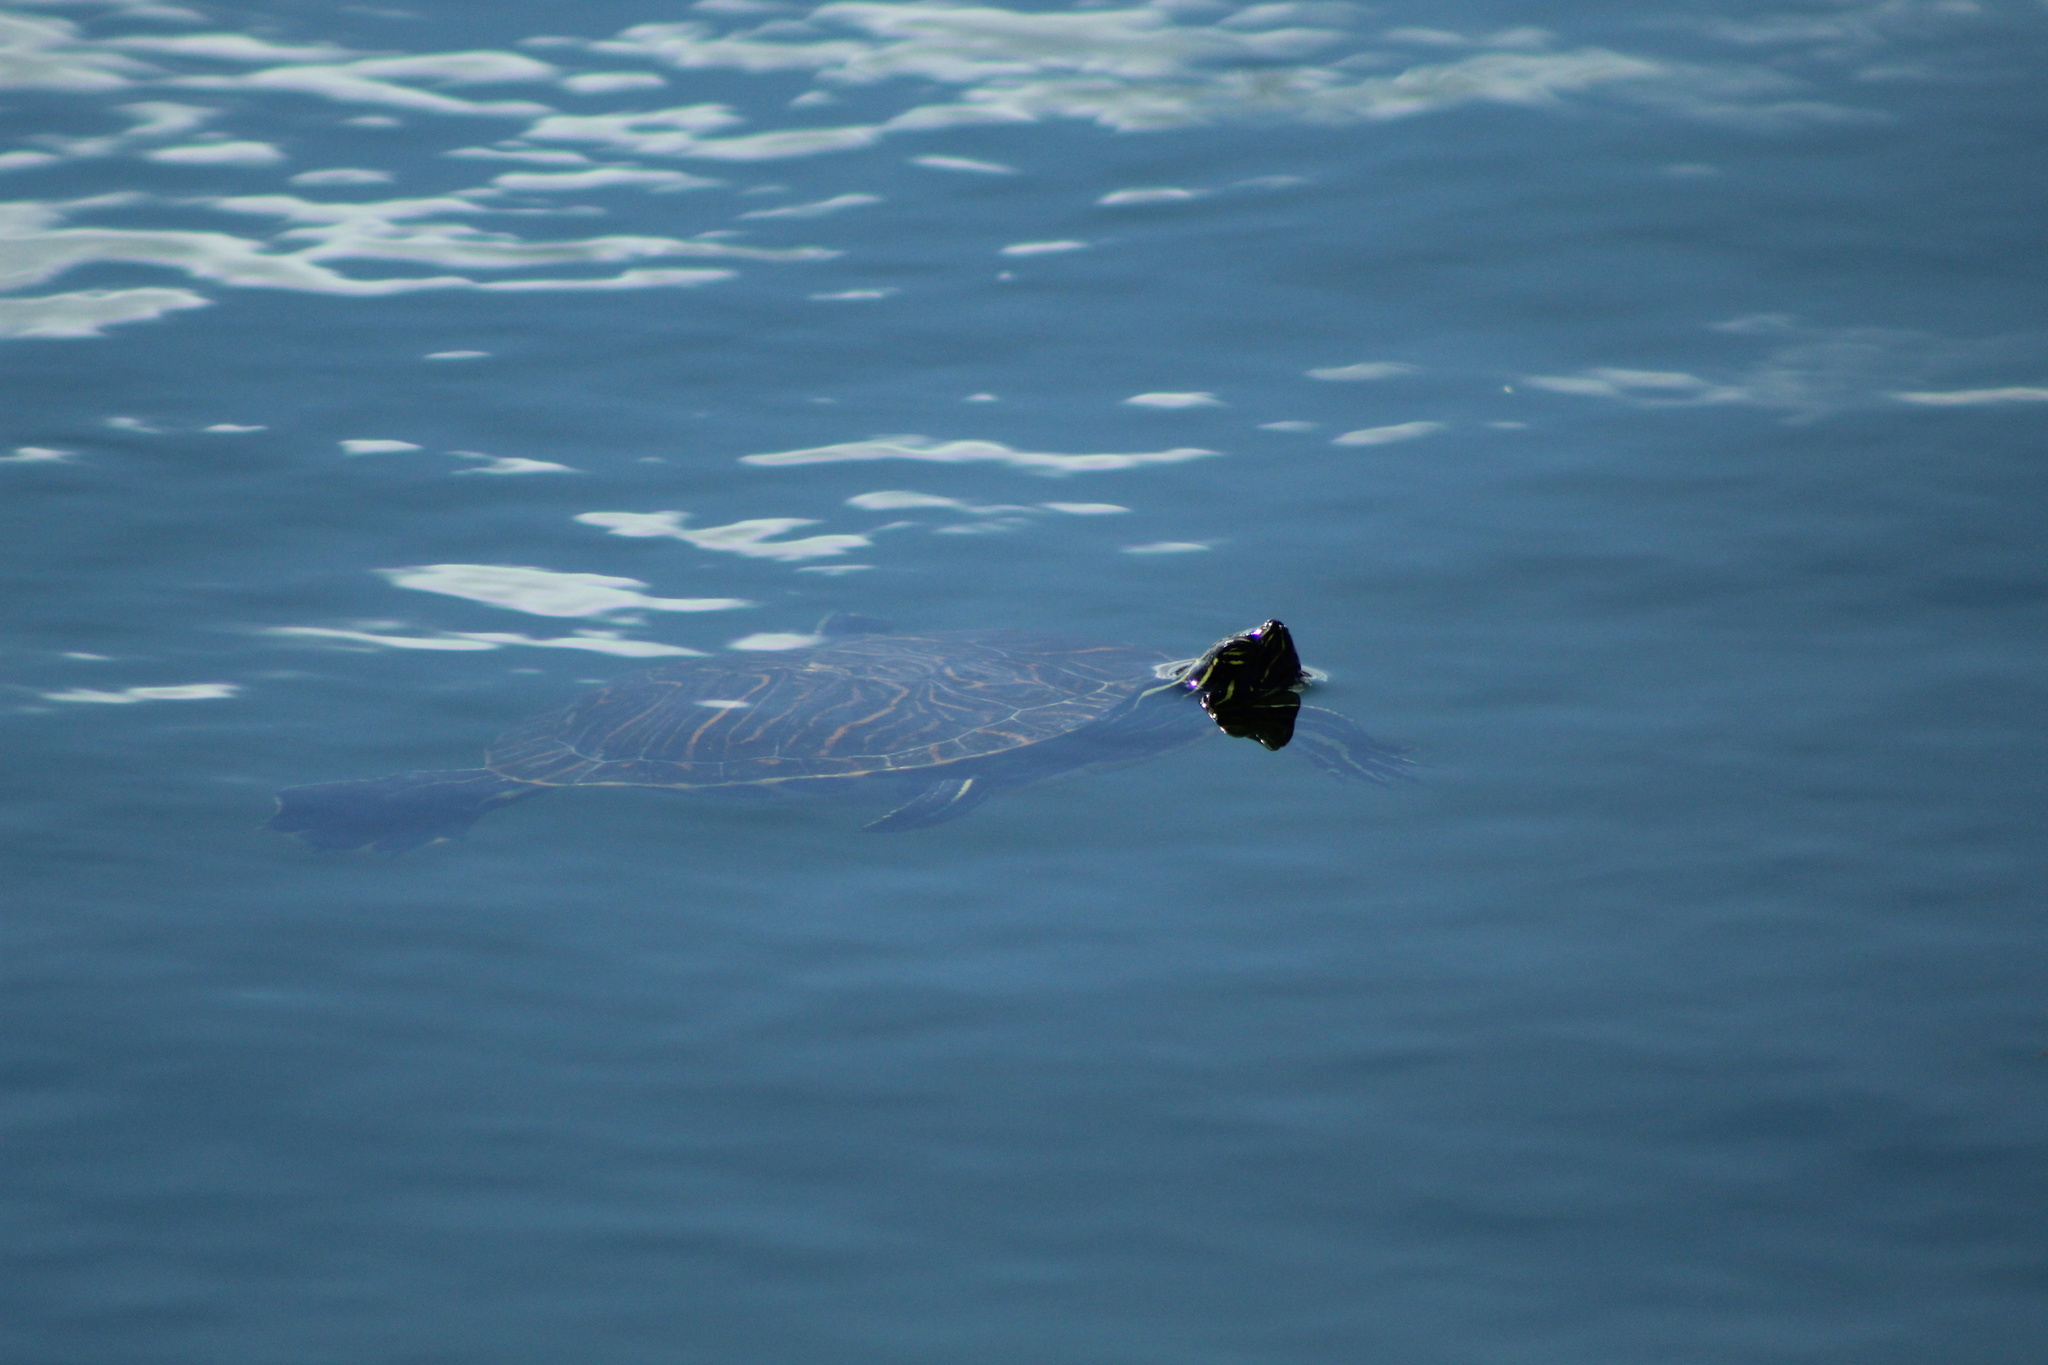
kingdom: Animalia
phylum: Chordata
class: Testudines
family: Emydidae
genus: Pseudemys
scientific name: Pseudemys peninsularis
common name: Peninsula cooter
